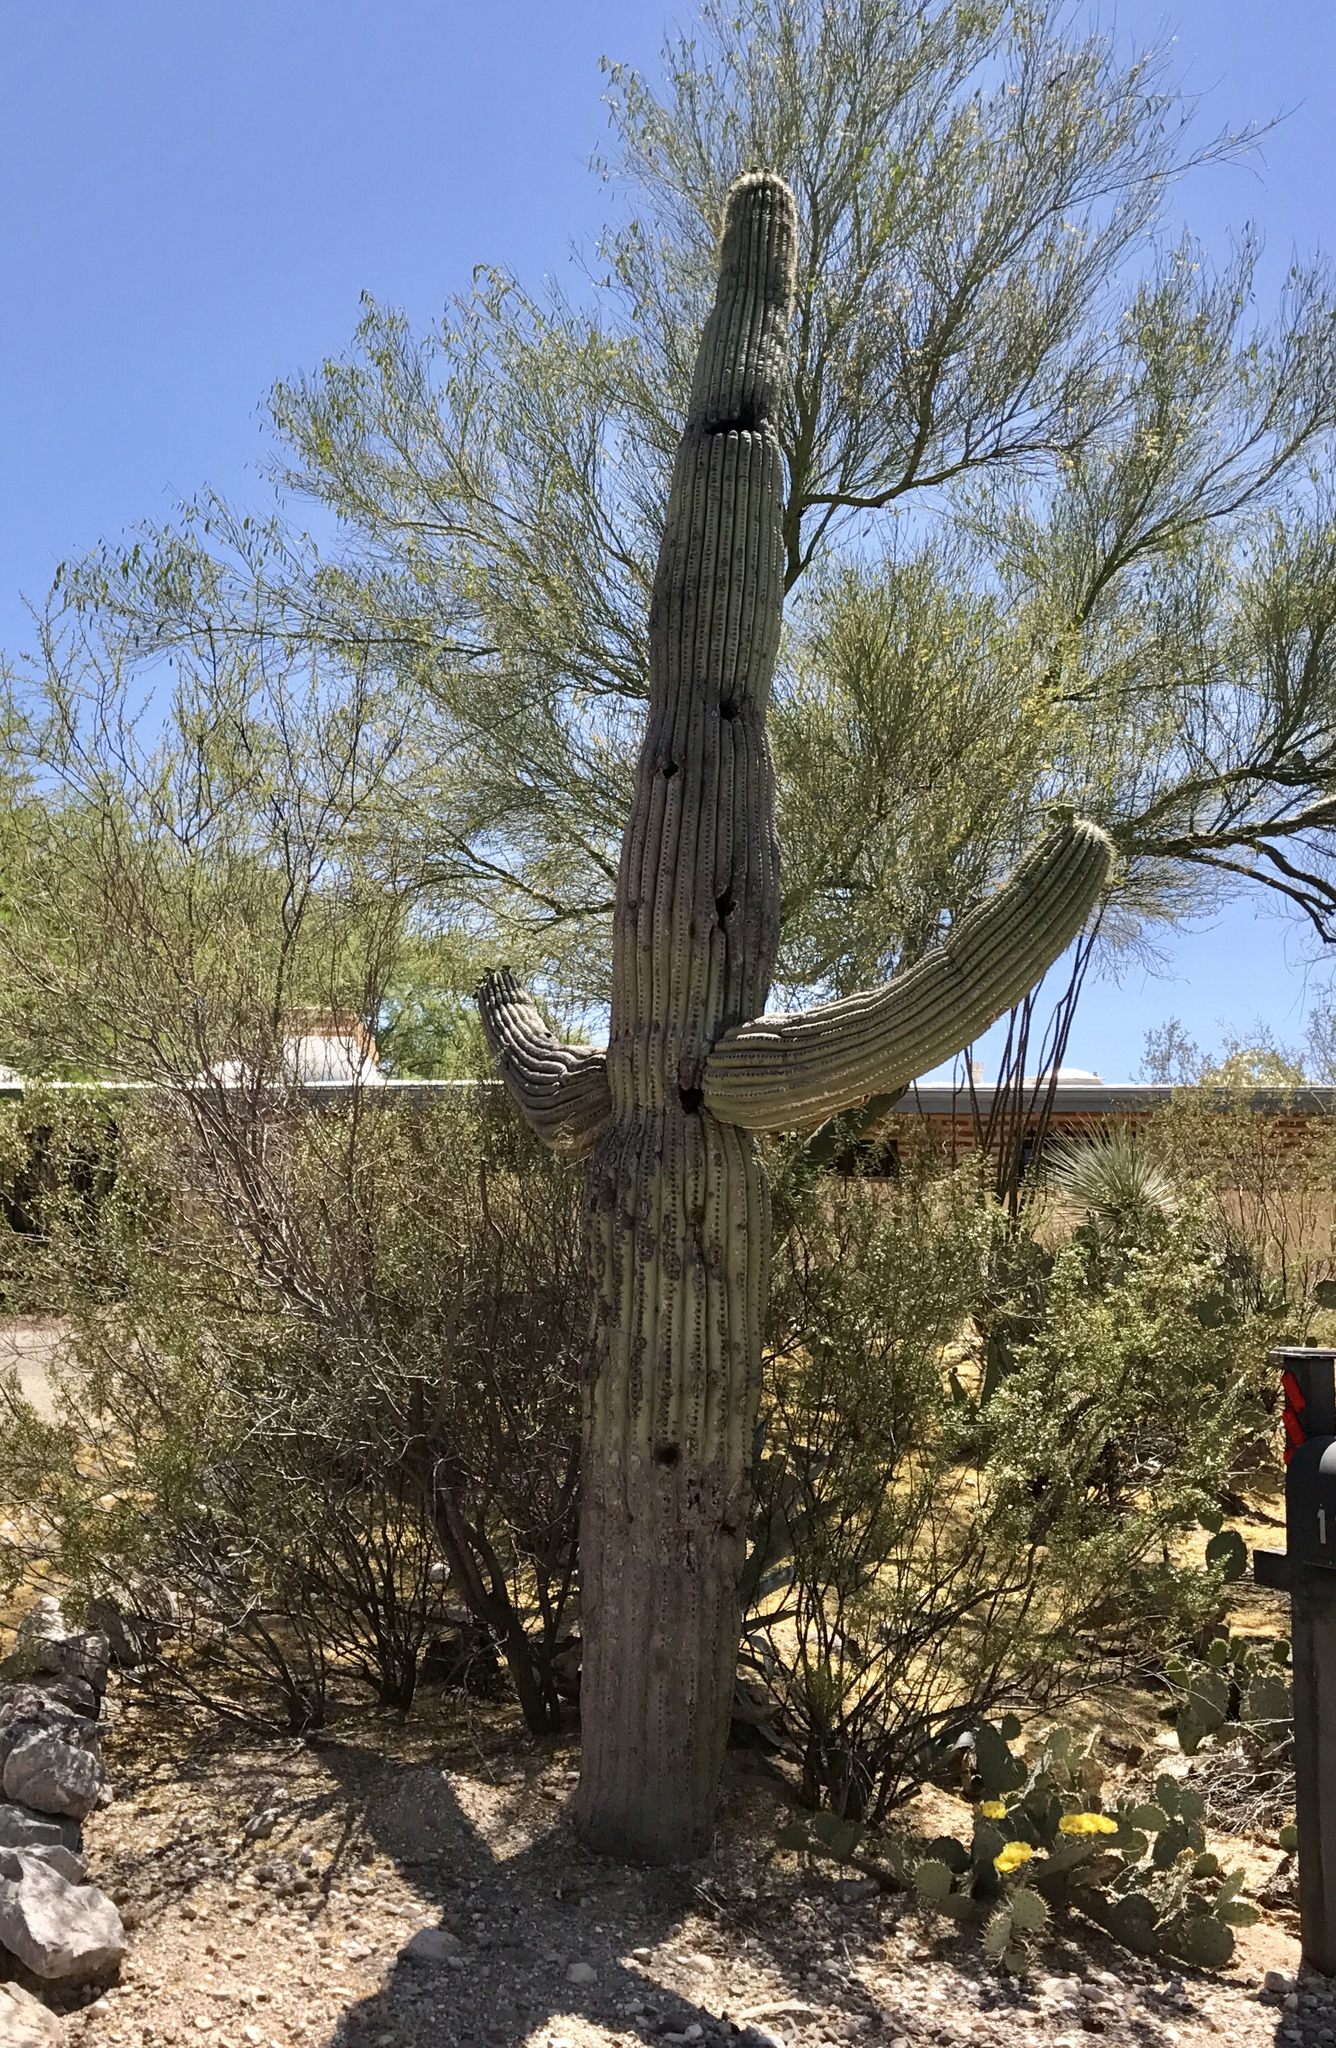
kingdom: Plantae
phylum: Tracheophyta
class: Magnoliopsida
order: Caryophyllales
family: Cactaceae
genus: Carnegiea
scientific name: Carnegiea gigantea
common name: Saguaro
